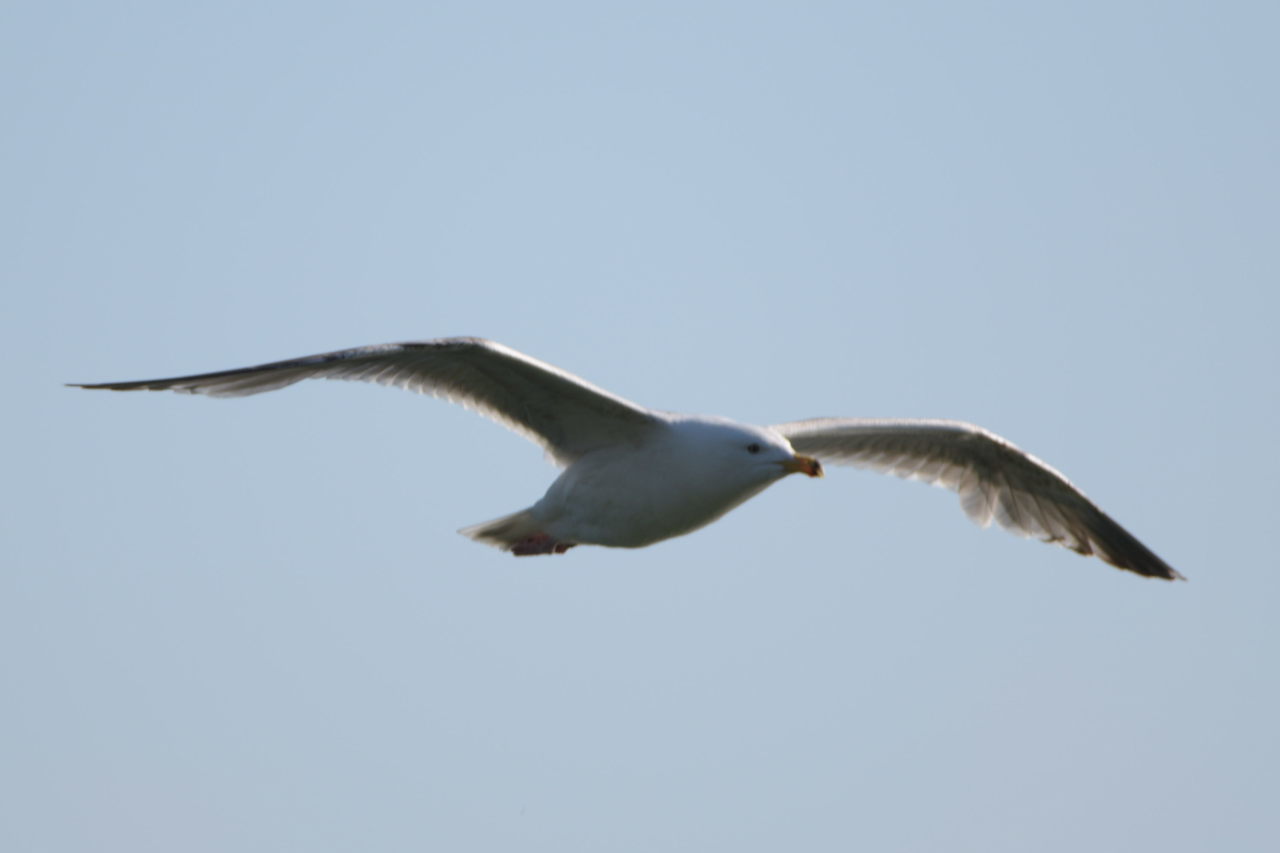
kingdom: Animalia
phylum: Chordata
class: Aves
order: Charadriiformes
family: Laridae
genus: Larus
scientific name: Larus argentatus
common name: Herring gull
